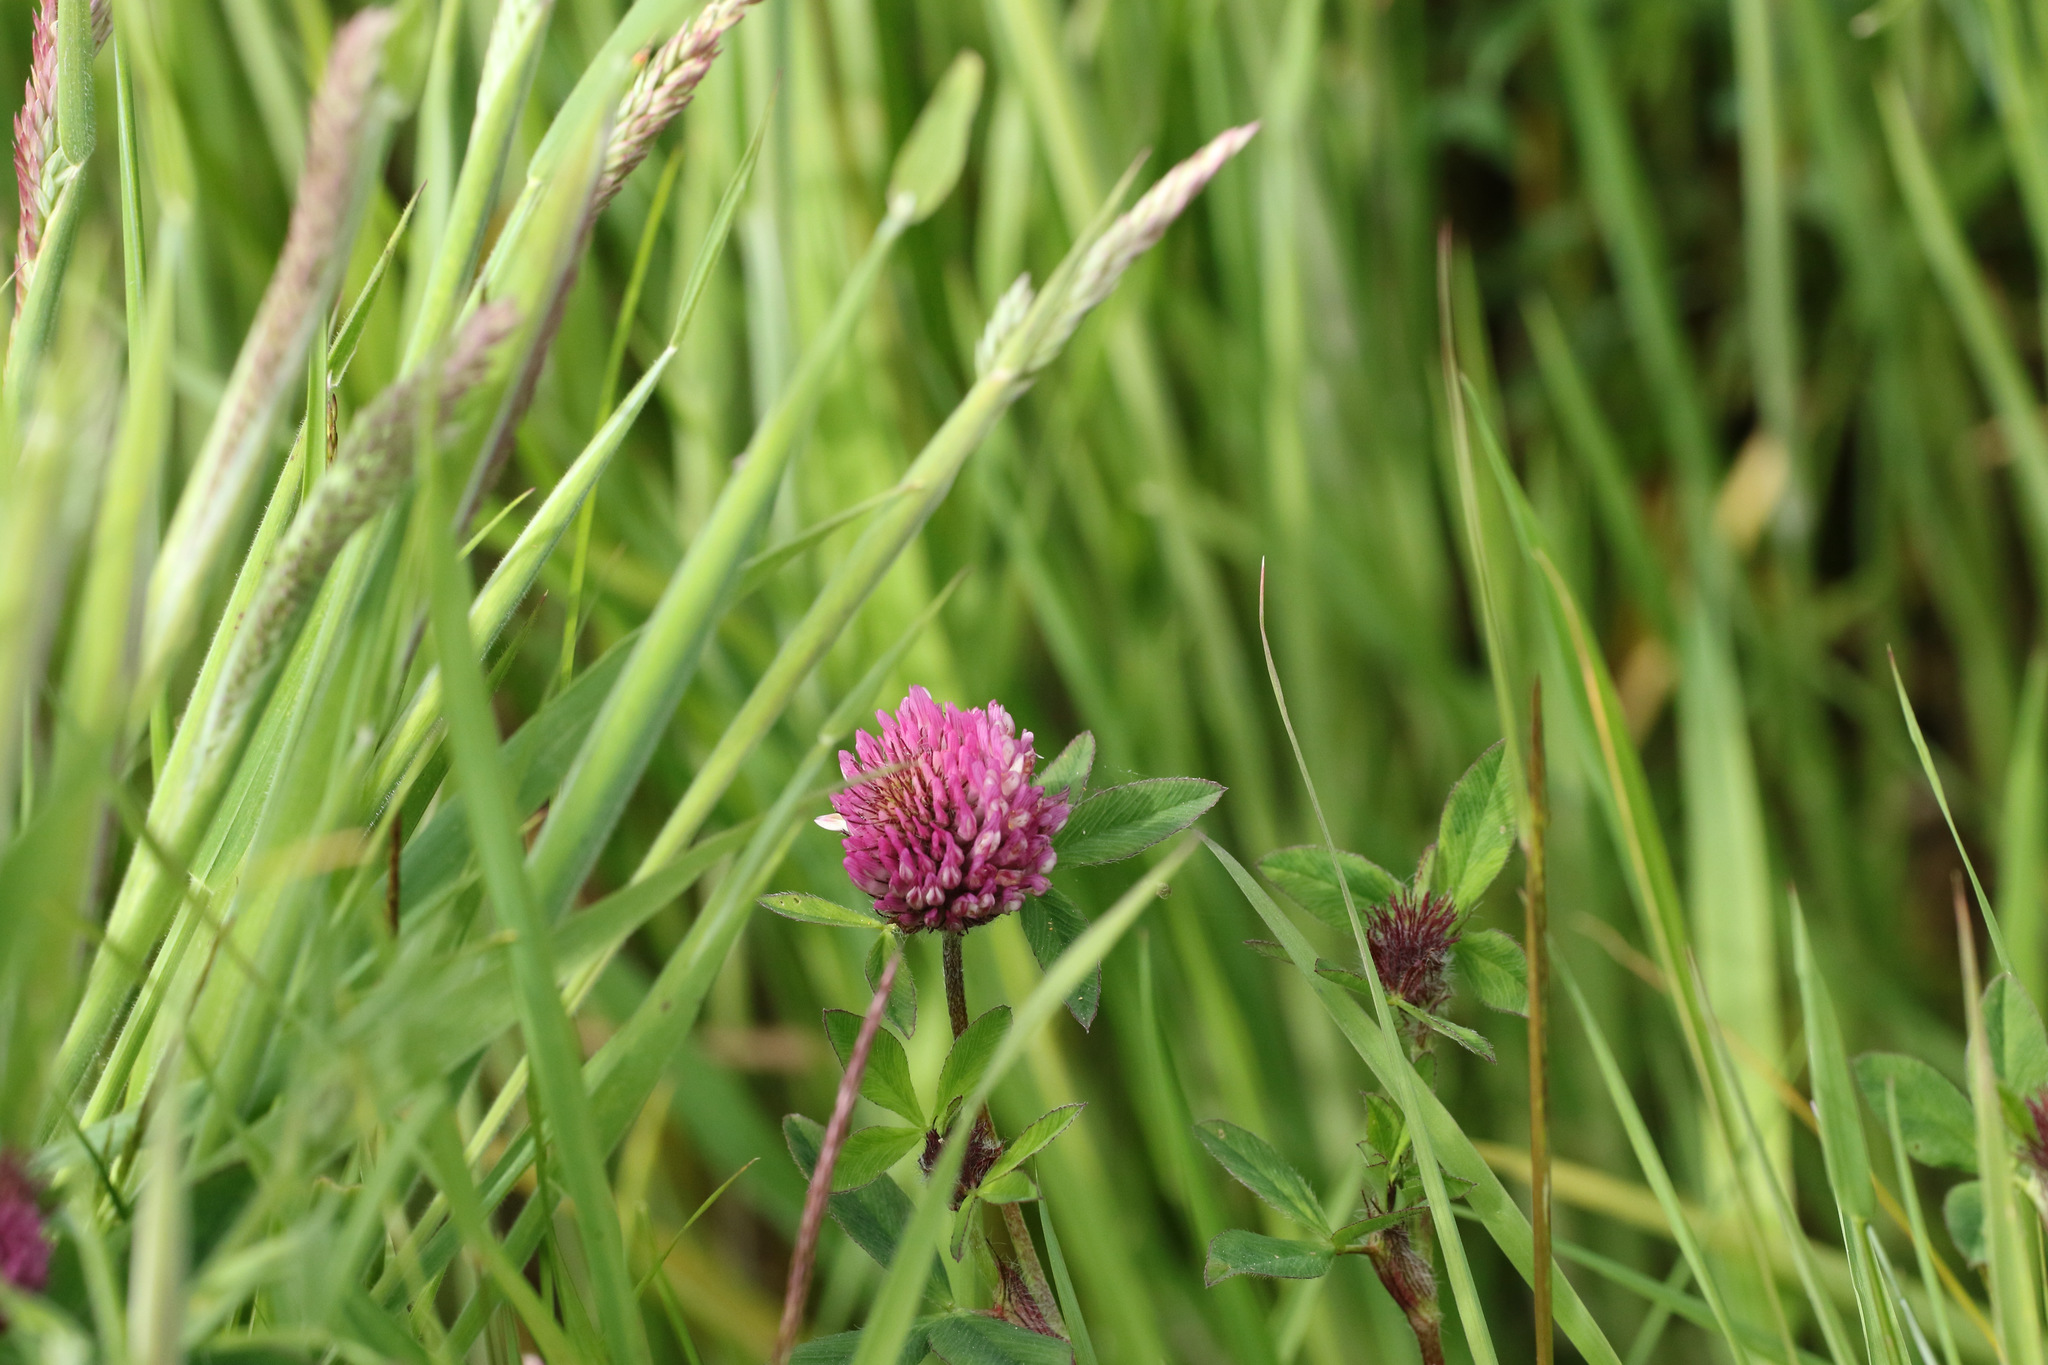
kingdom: Plantae
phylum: Tracheophyta
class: Magnoliopsida
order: Fabales
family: Fabaceae
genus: Trifolium
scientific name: Trifolium pratense
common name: Red clover
